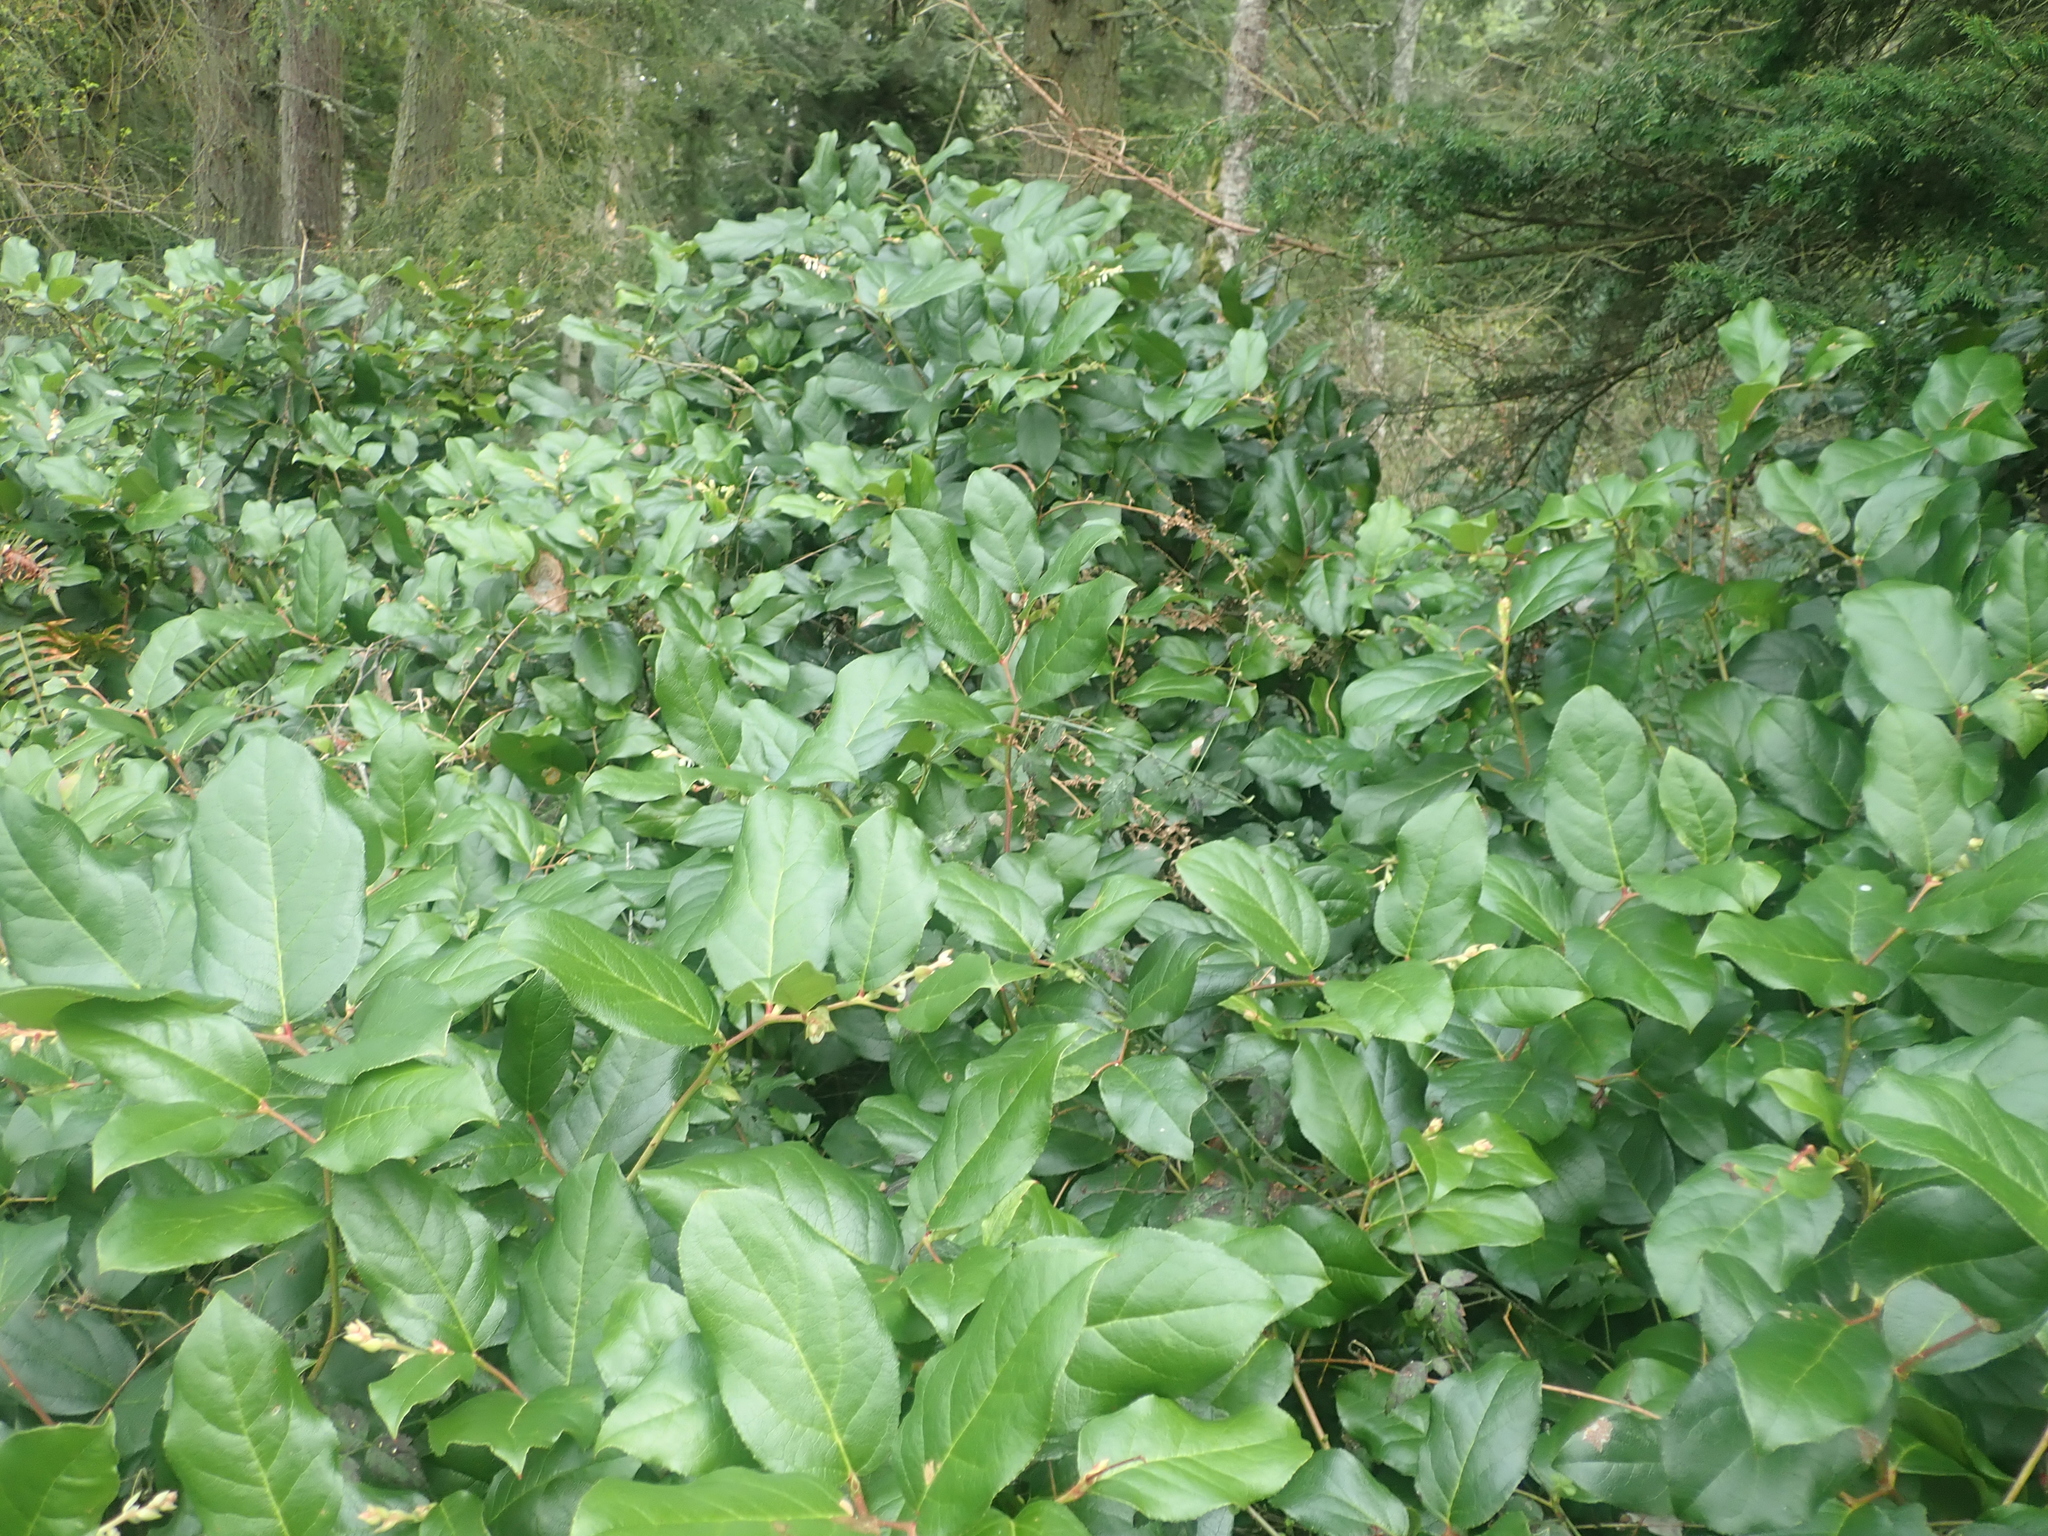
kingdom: Plantae
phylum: Tracheophyta
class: Magnoliopsida
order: Ericales
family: Ericaceae
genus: Gaultheria
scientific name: Gaultheria shallon
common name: Shallon
